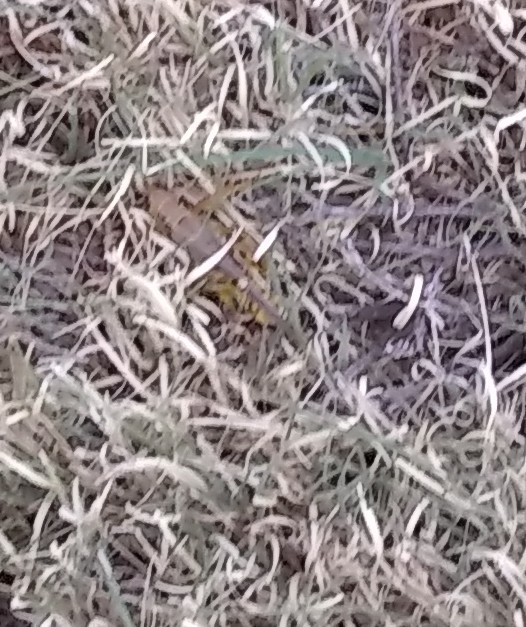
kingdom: Animalia
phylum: Arthropoda
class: Insecta
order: Orthoptera
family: Acrididae
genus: Melanoplus
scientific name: Melanoplus differentialis
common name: Differential grasshopper
